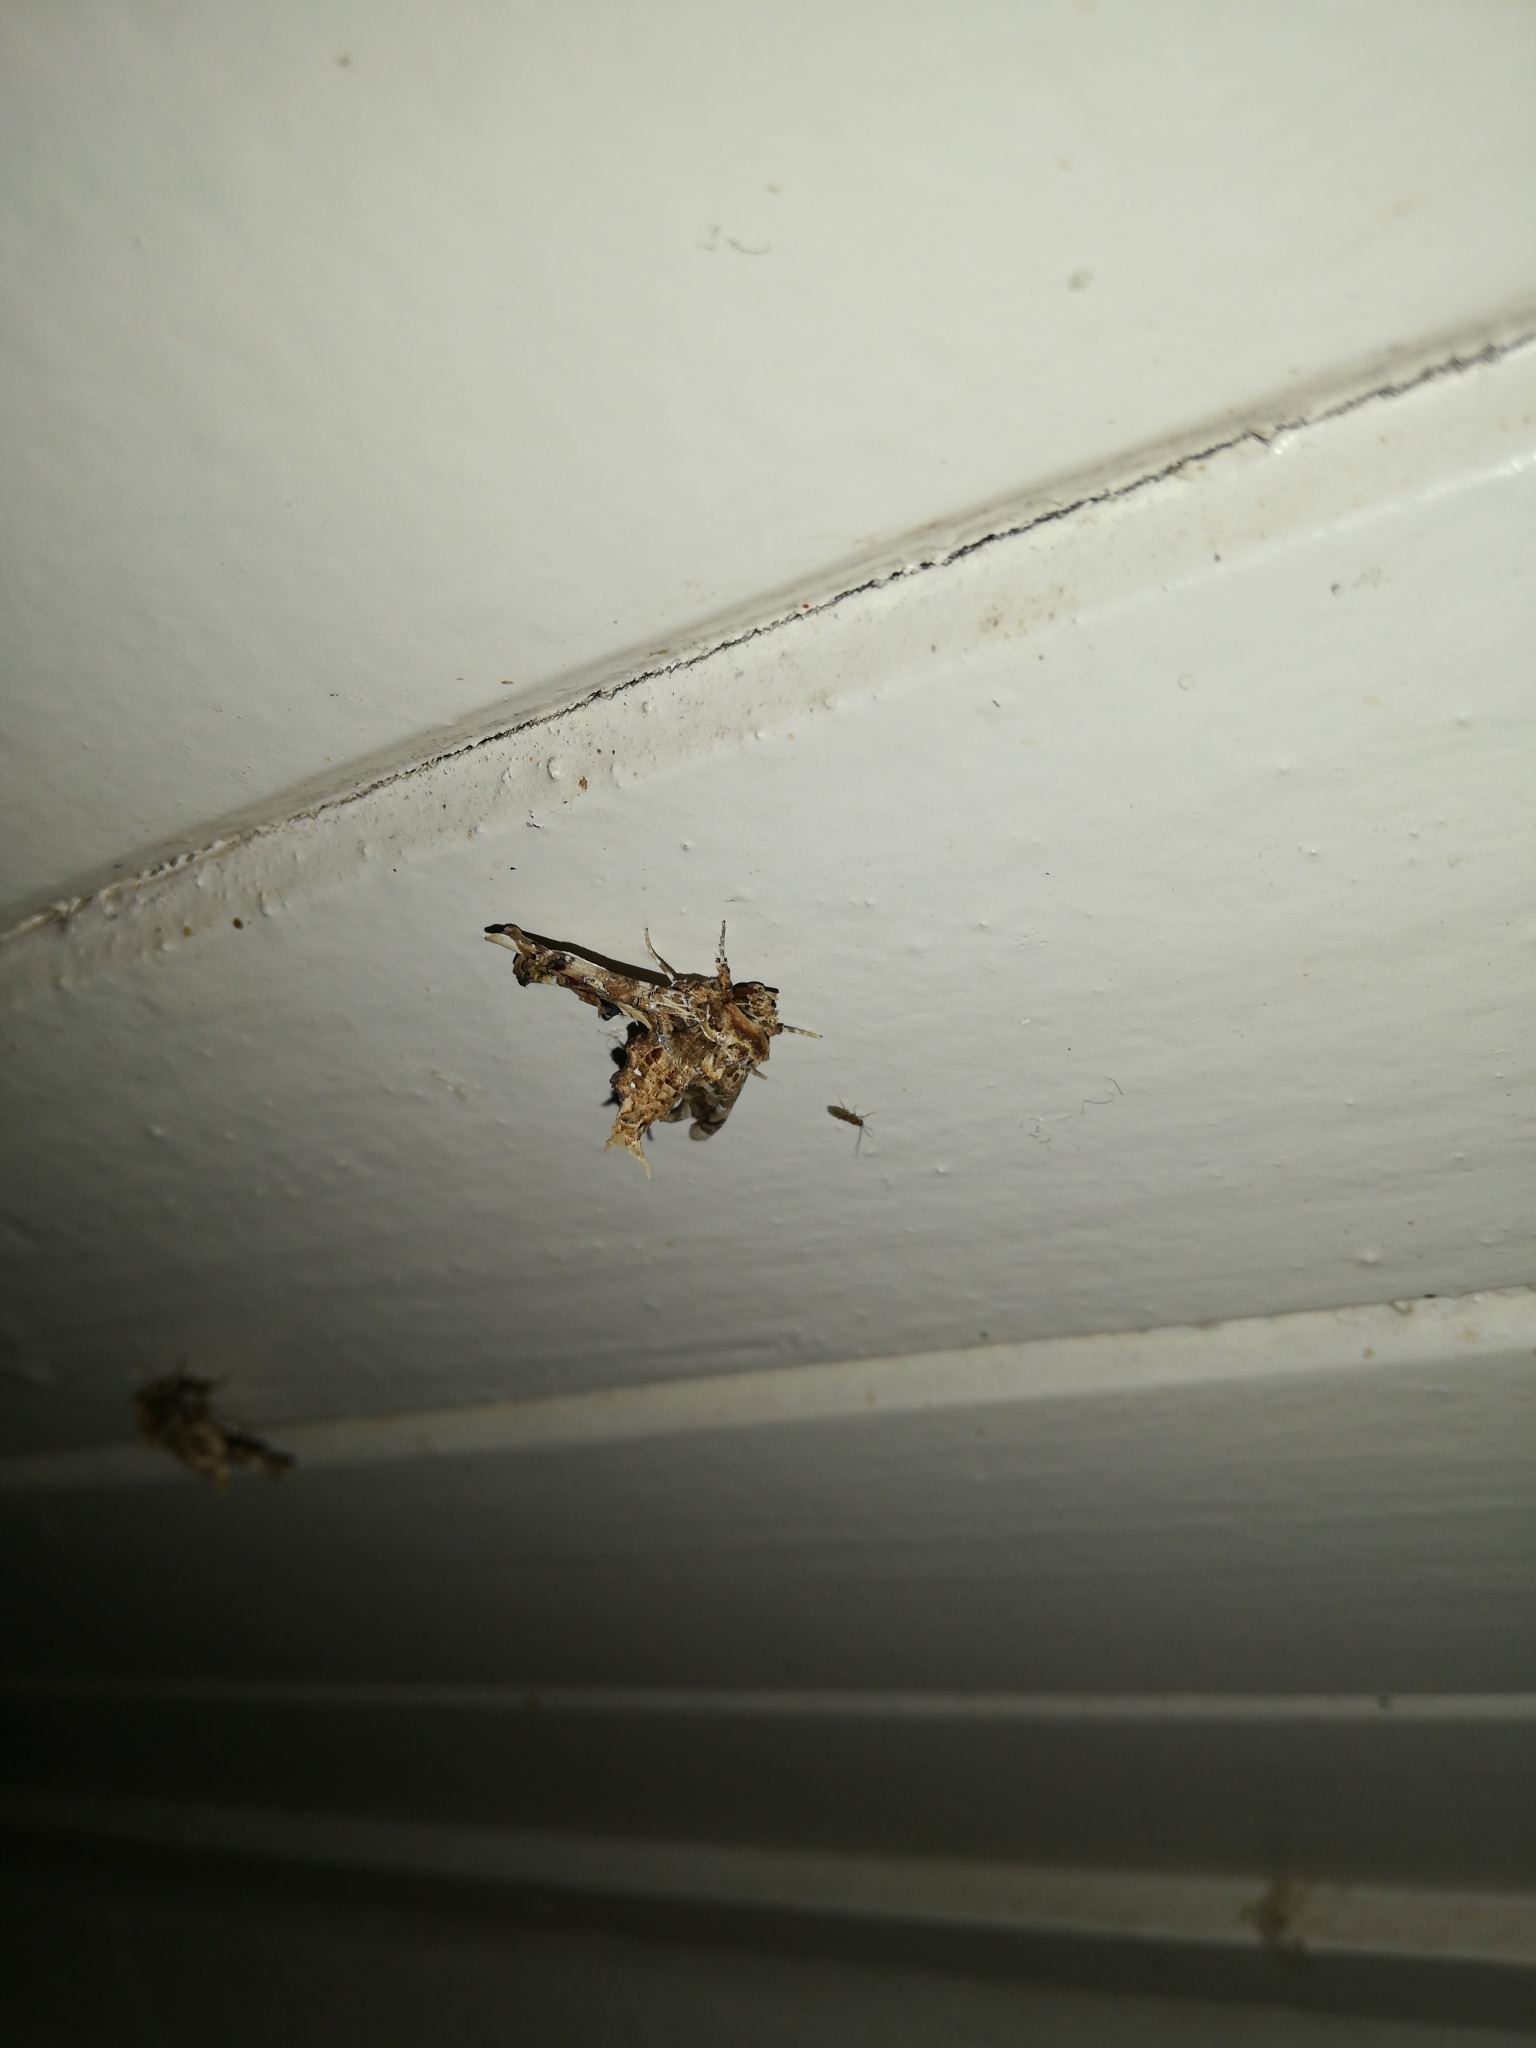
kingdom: Animalia
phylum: Arthropoda
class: Insecta
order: Lepidoptera
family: Euteliidae
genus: Eutelia
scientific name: Eutelia adulatrix
